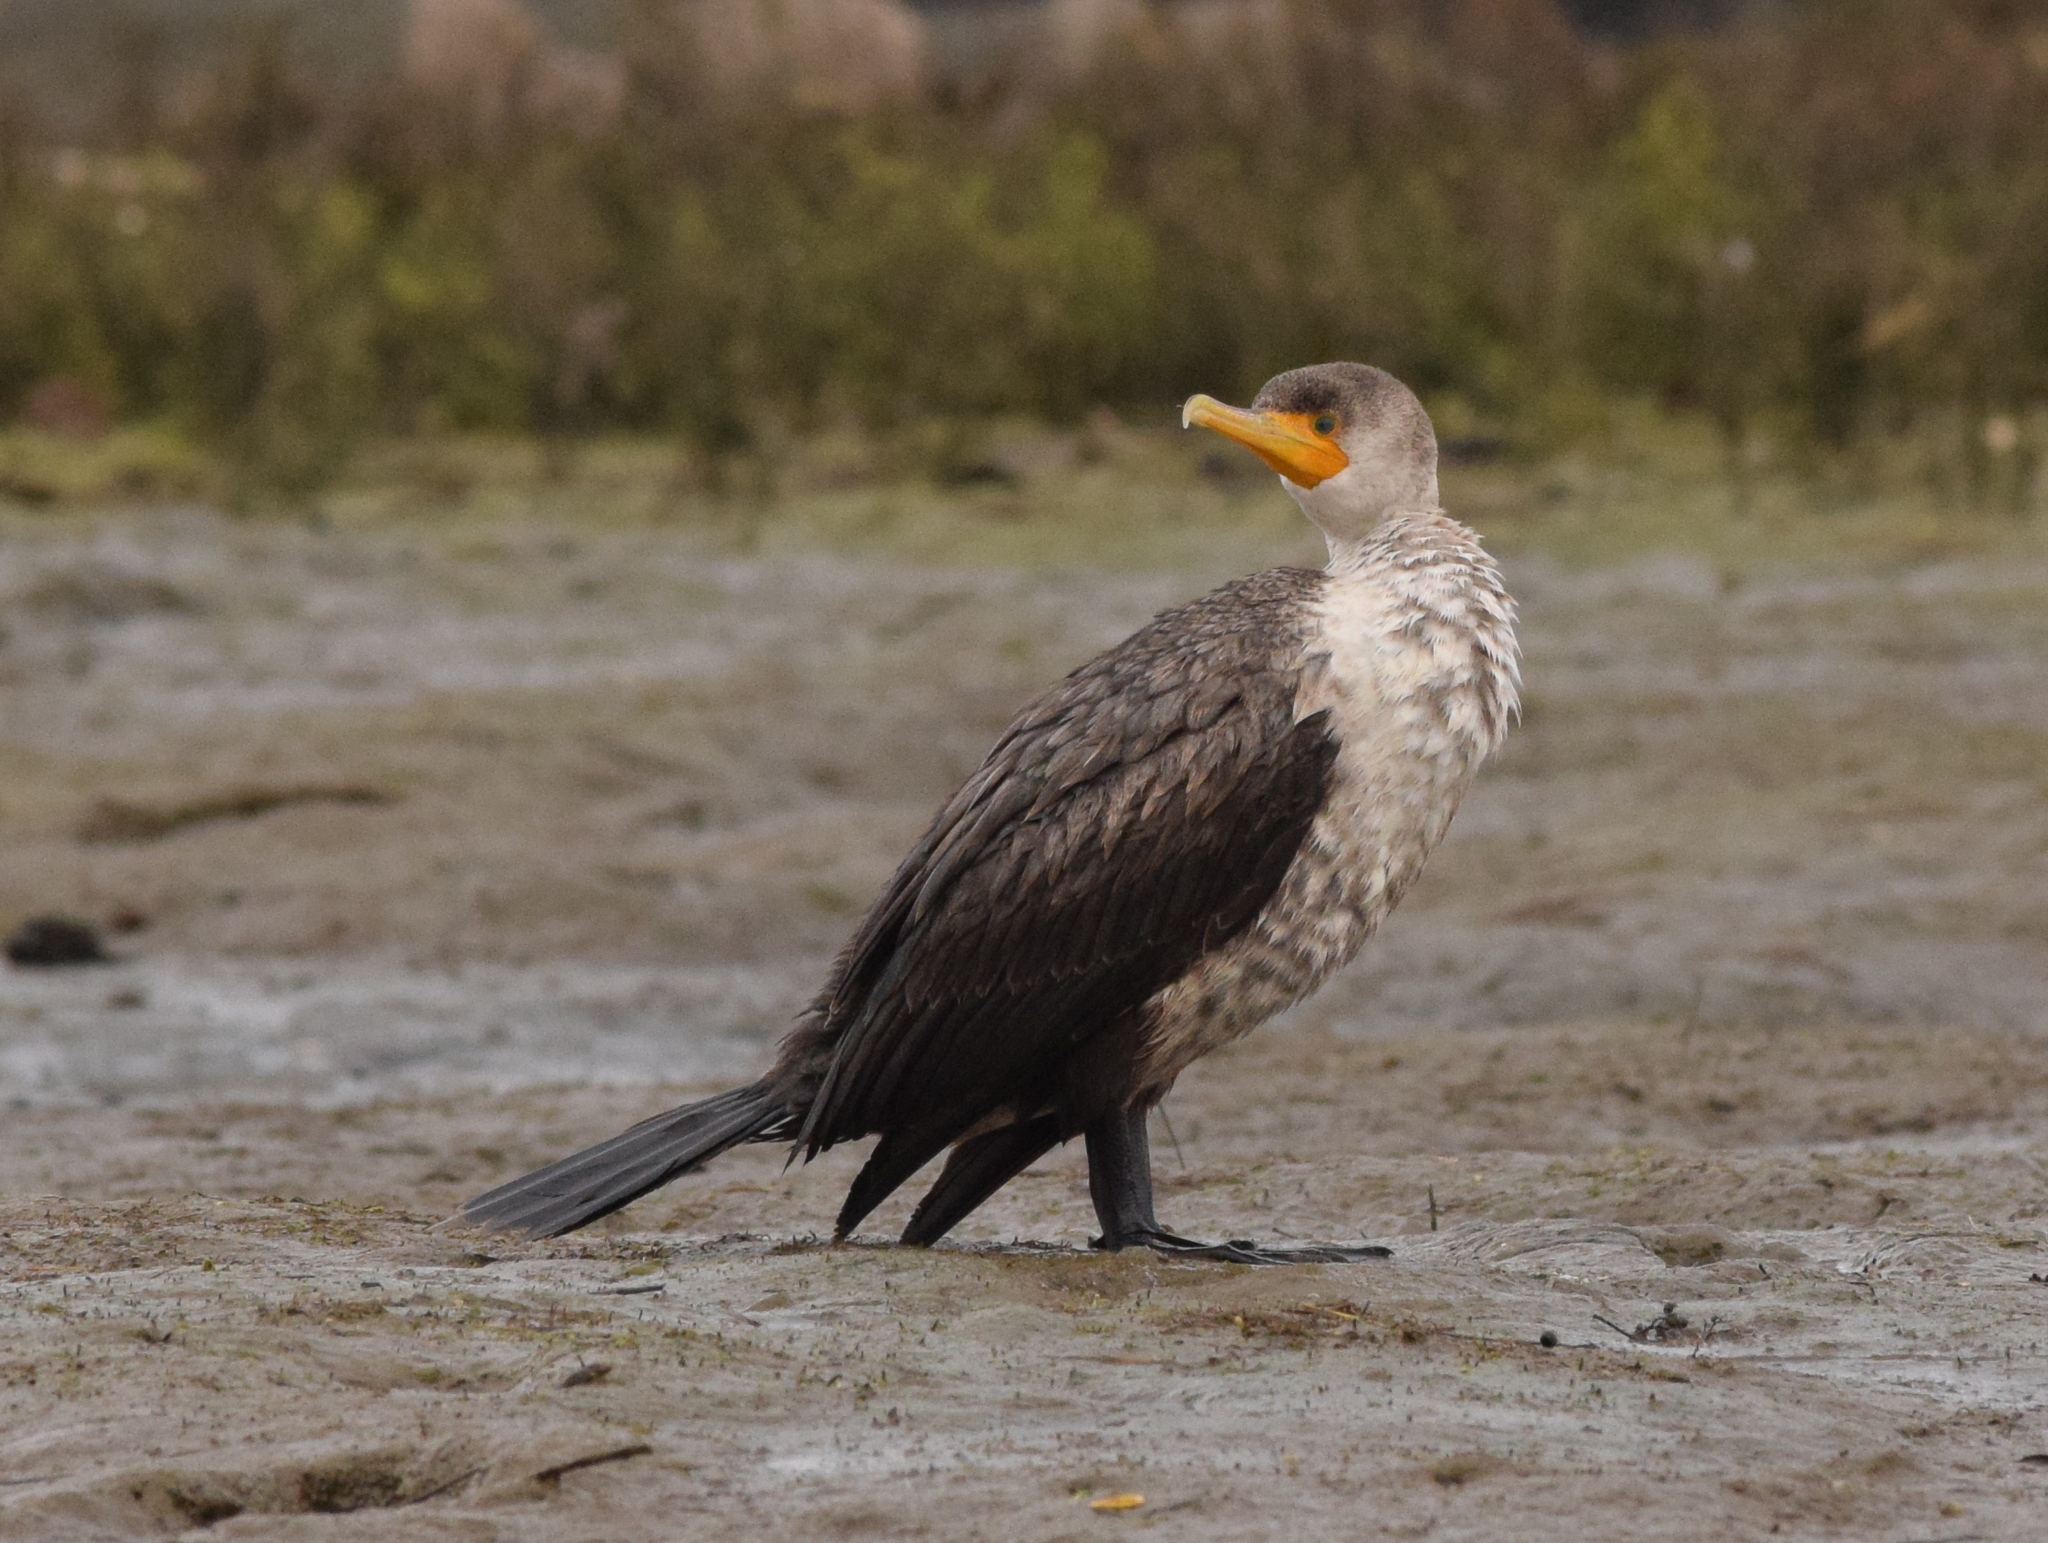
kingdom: Animalia
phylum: Chordata
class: Aves
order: Suliformes
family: Phalacrocoracidae
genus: Phalacrocorax
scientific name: Phalacrocorax auritus
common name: Double-crested cormorant
